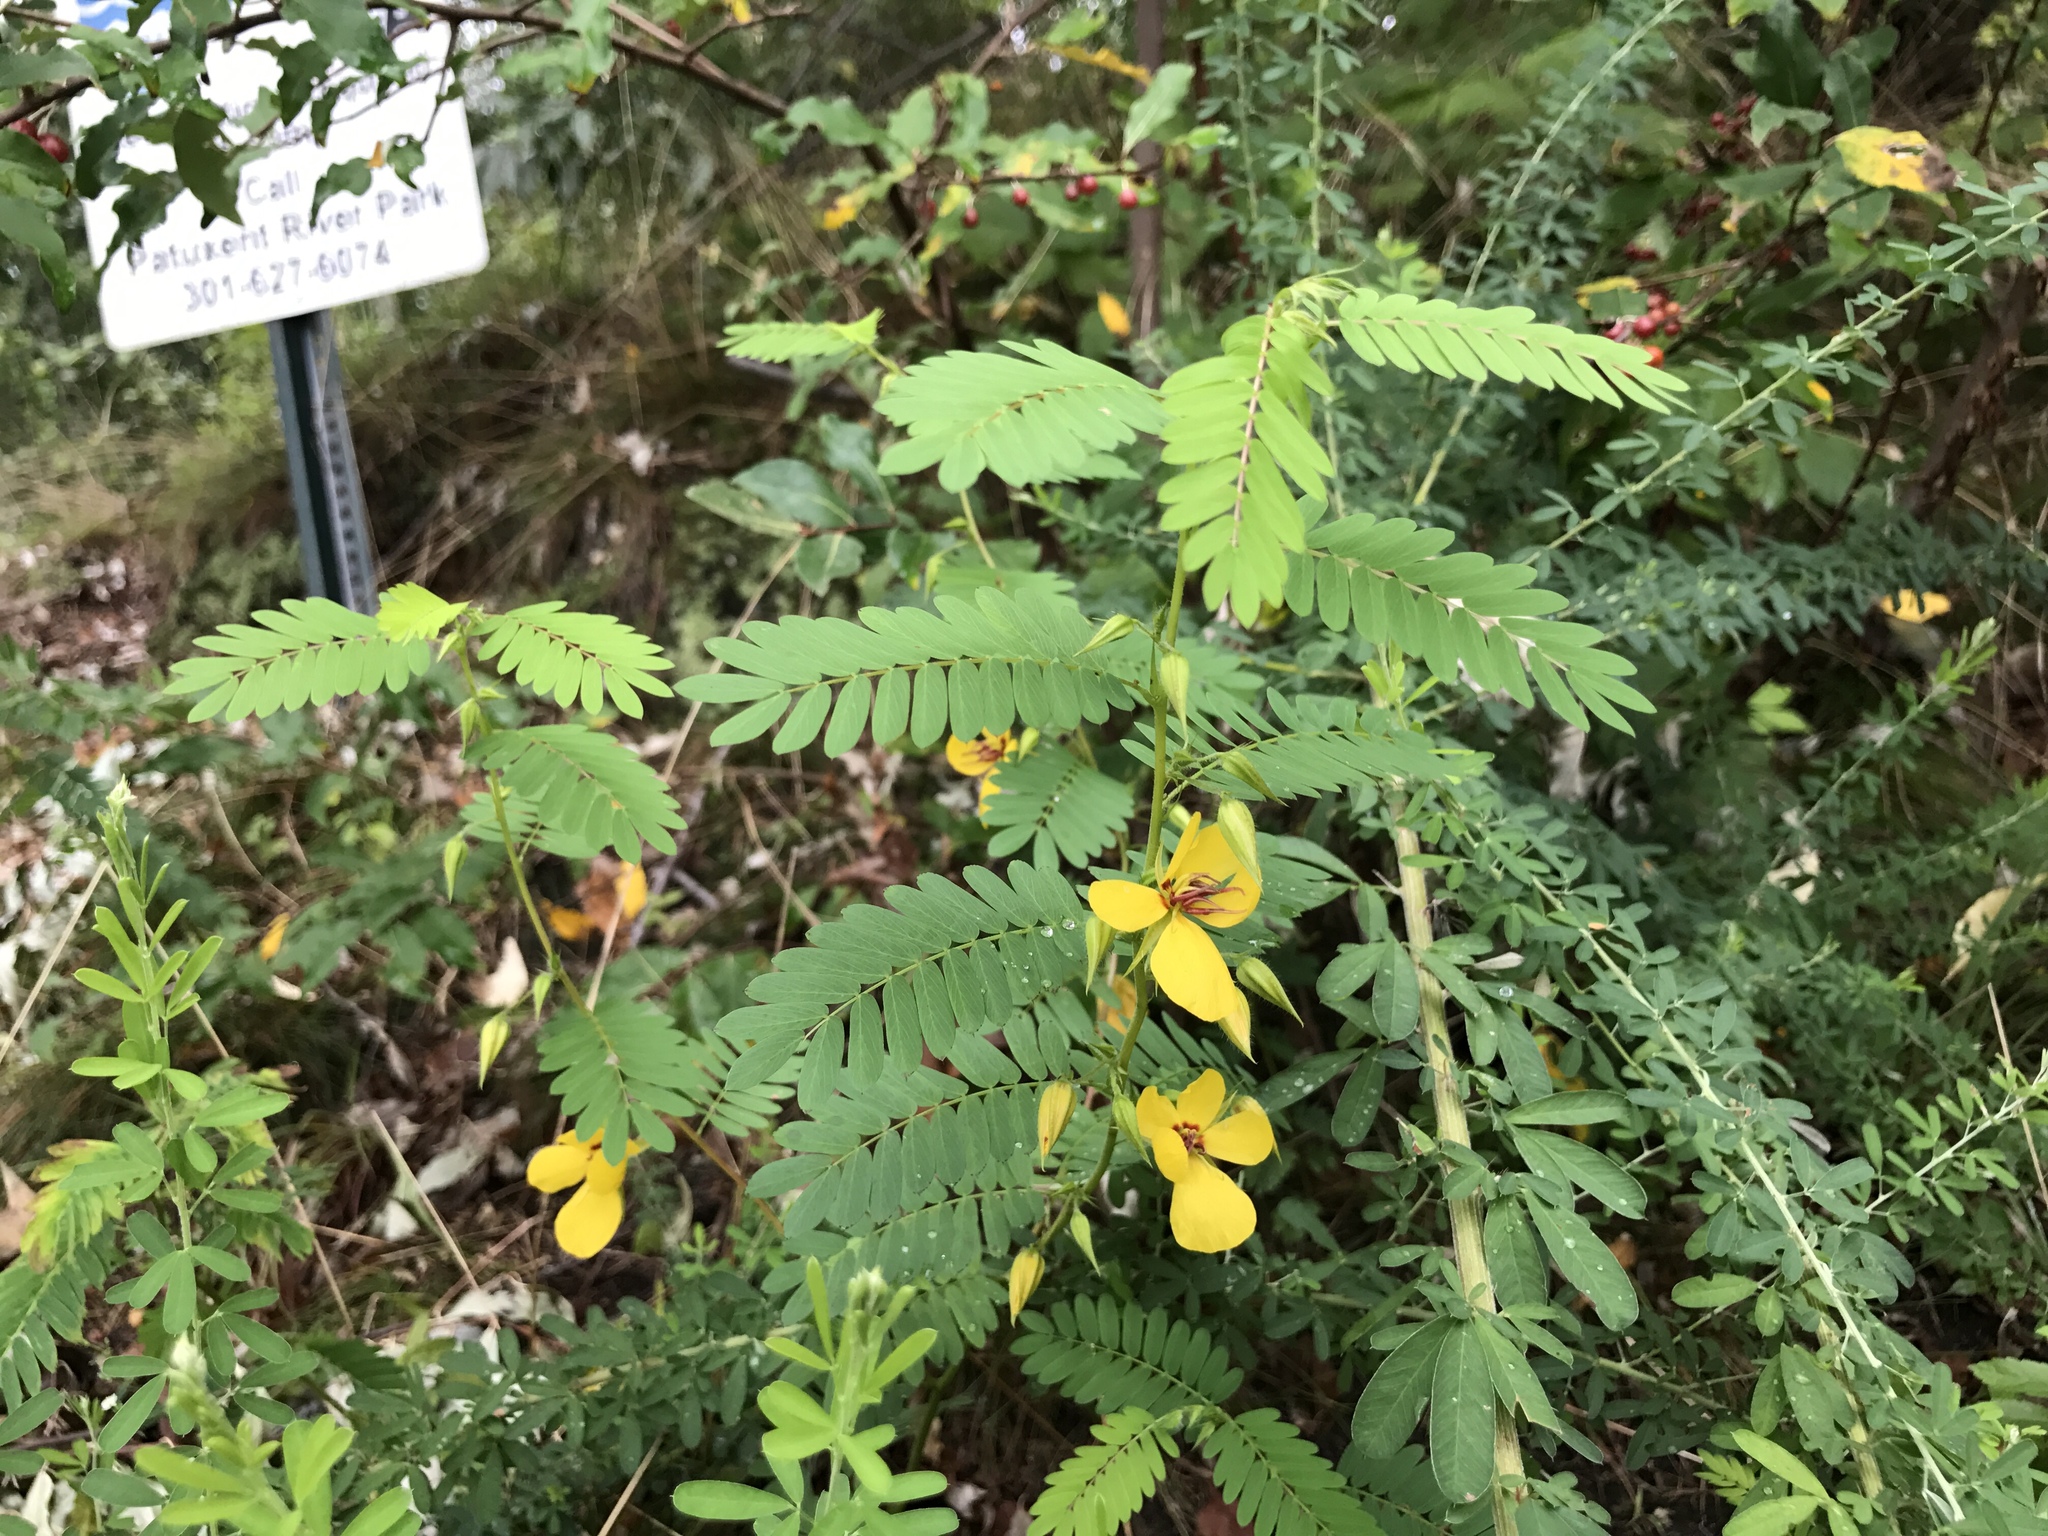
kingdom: Plantae
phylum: Tracheophyta
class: Magnoliopsida
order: Fabales
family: Fabaceae
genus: Chamaecrista
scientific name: Chamaecrista fasciculata
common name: Golden cassia
